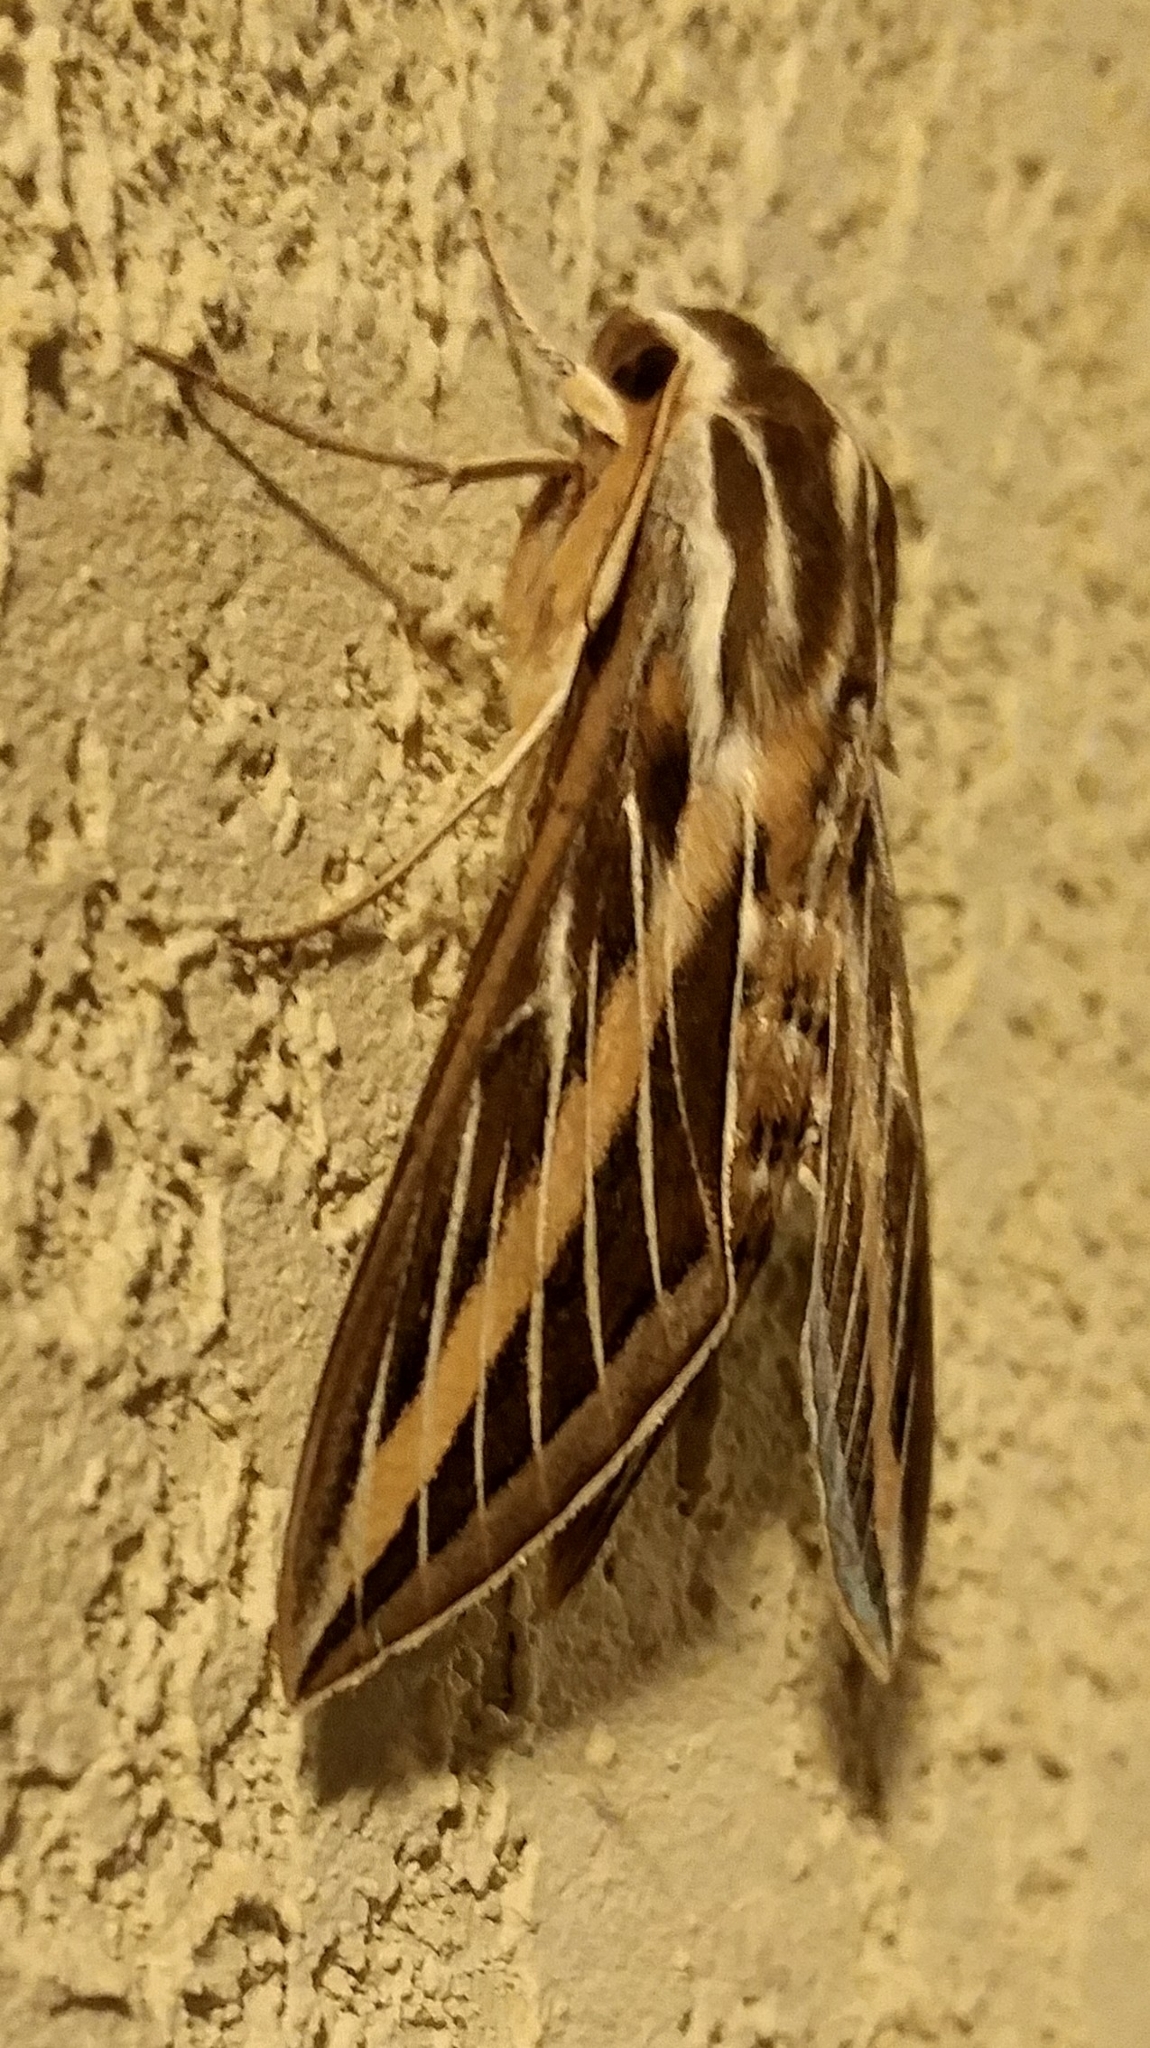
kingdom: Animalia
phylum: Arthropoda
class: Insecta
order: Lepidoptera
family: Sphingidae
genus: Hyles
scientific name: Hyles lineata
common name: White-lined sphinx
